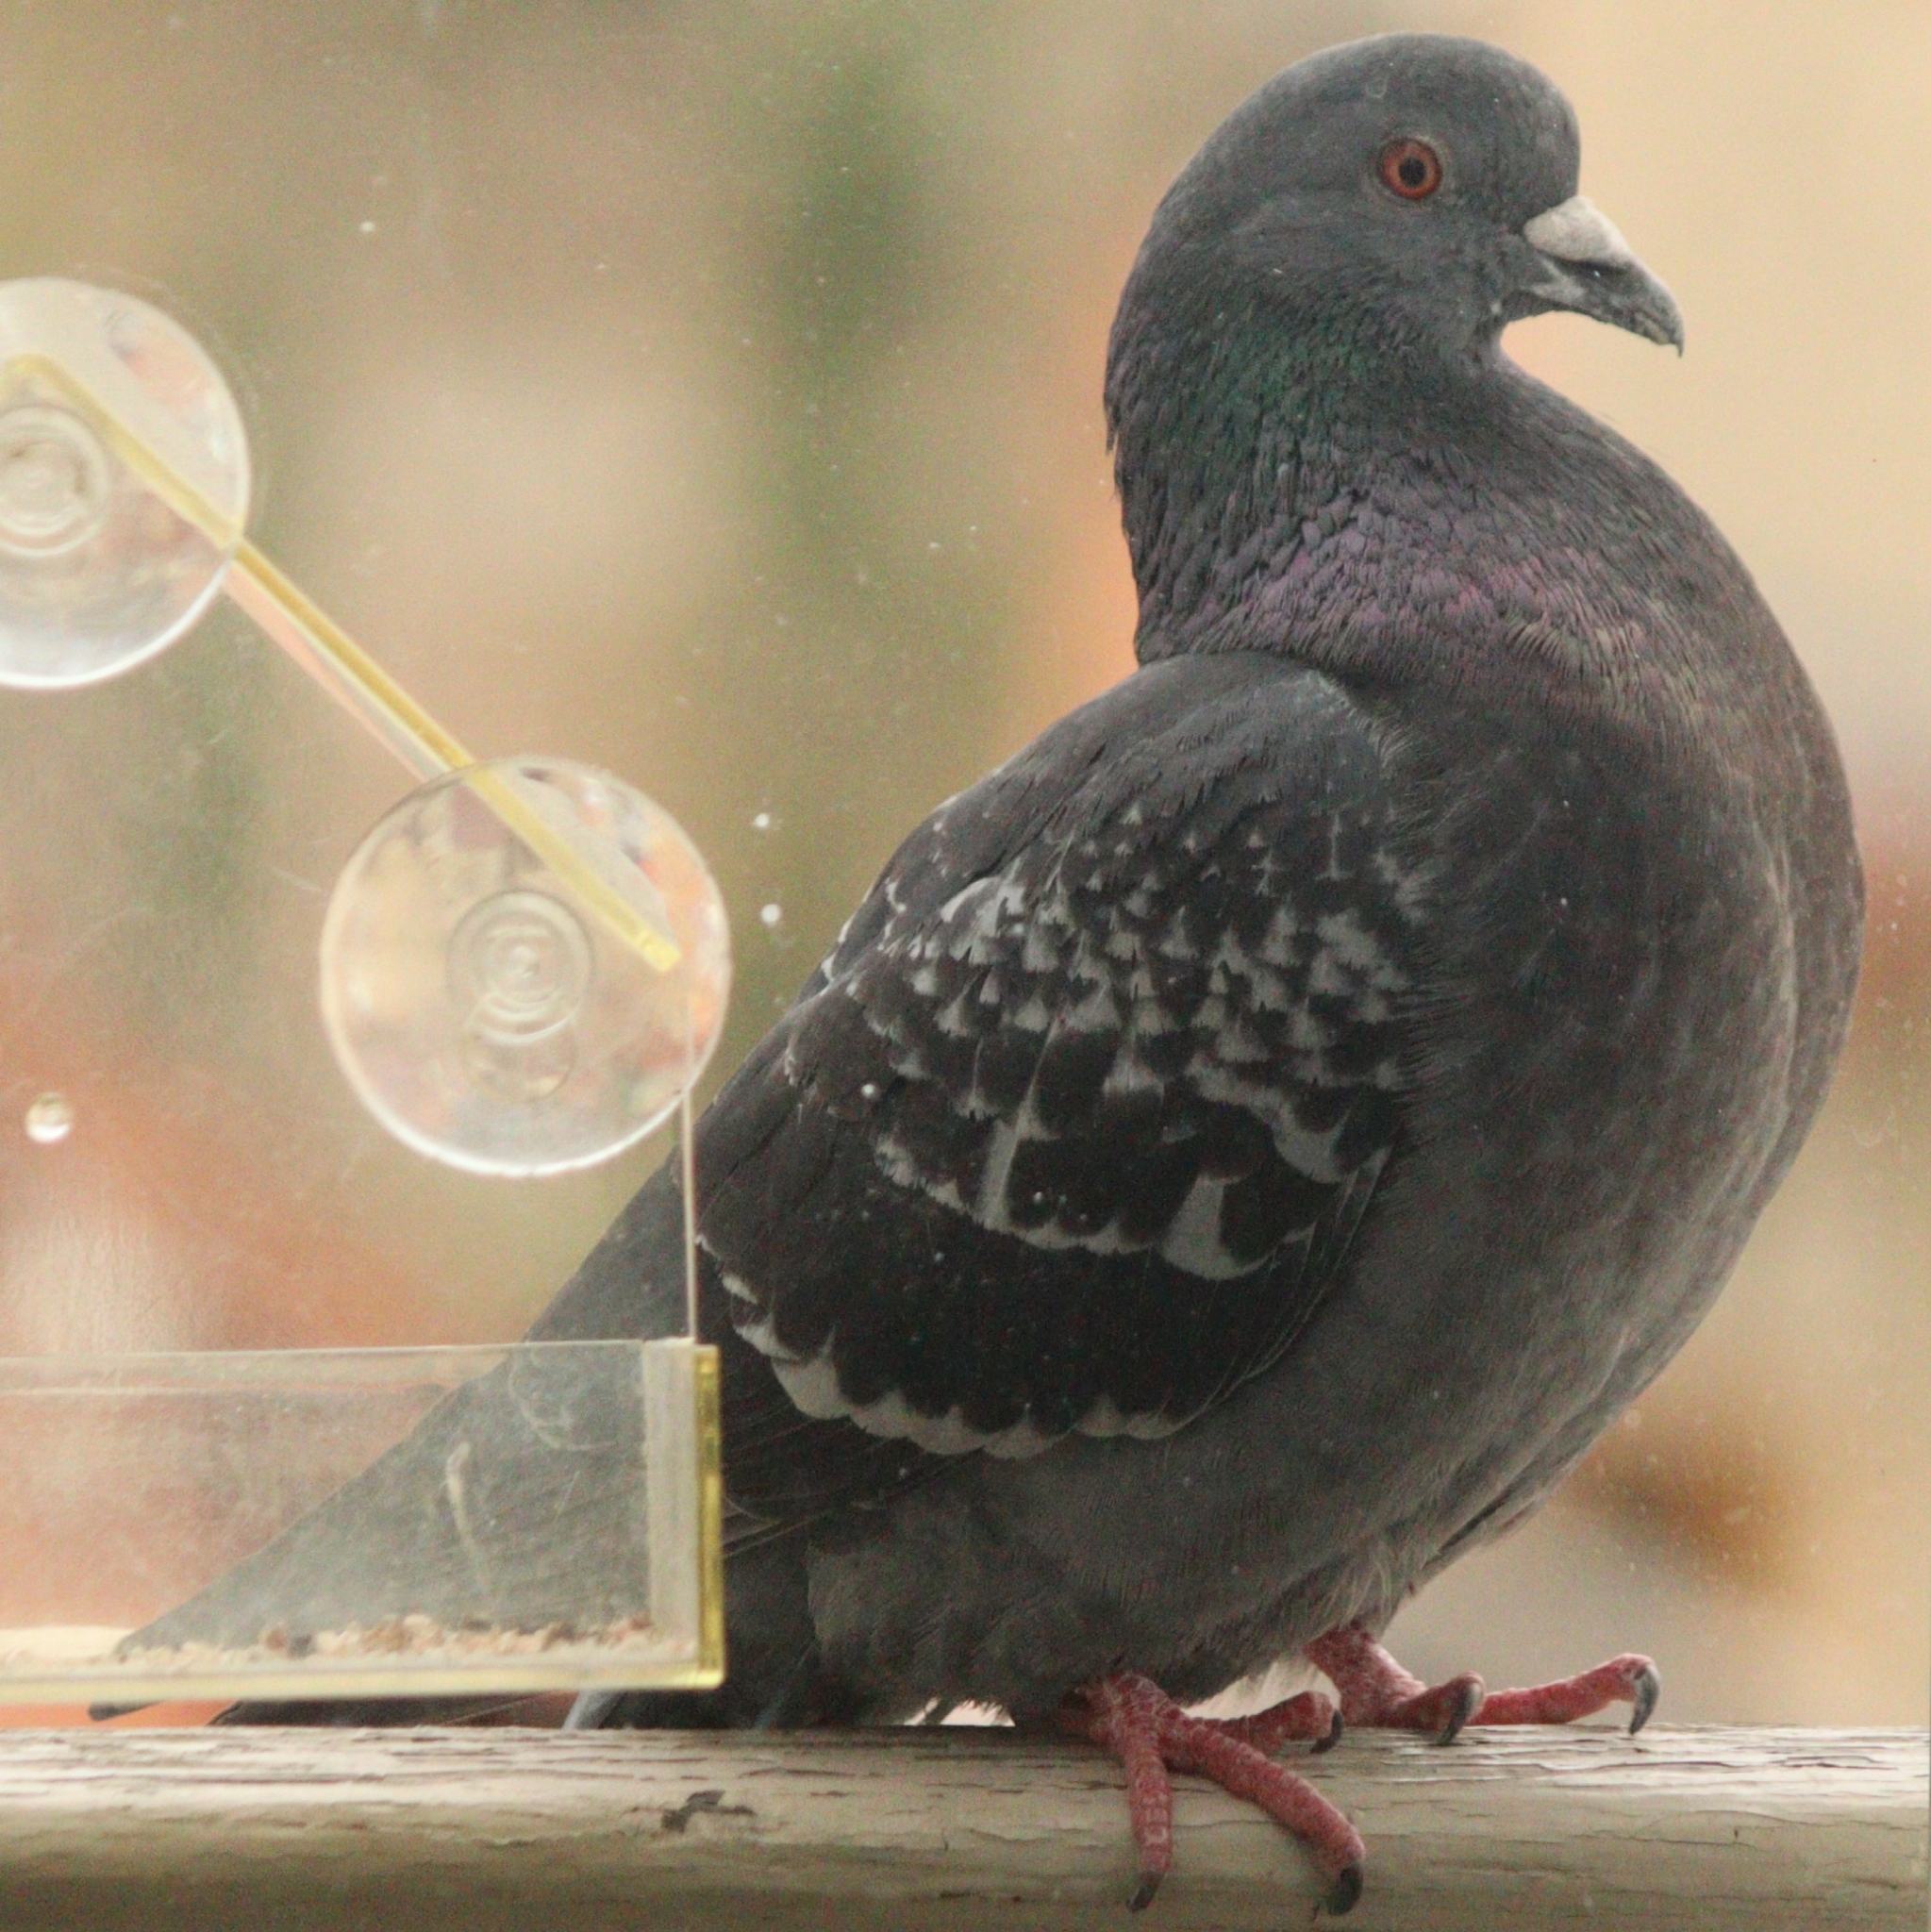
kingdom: Animalia
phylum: Chordata
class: Aves
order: Columbiformes
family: Columbidae
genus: Columba
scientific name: Columba livia
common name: Rock pigeon
